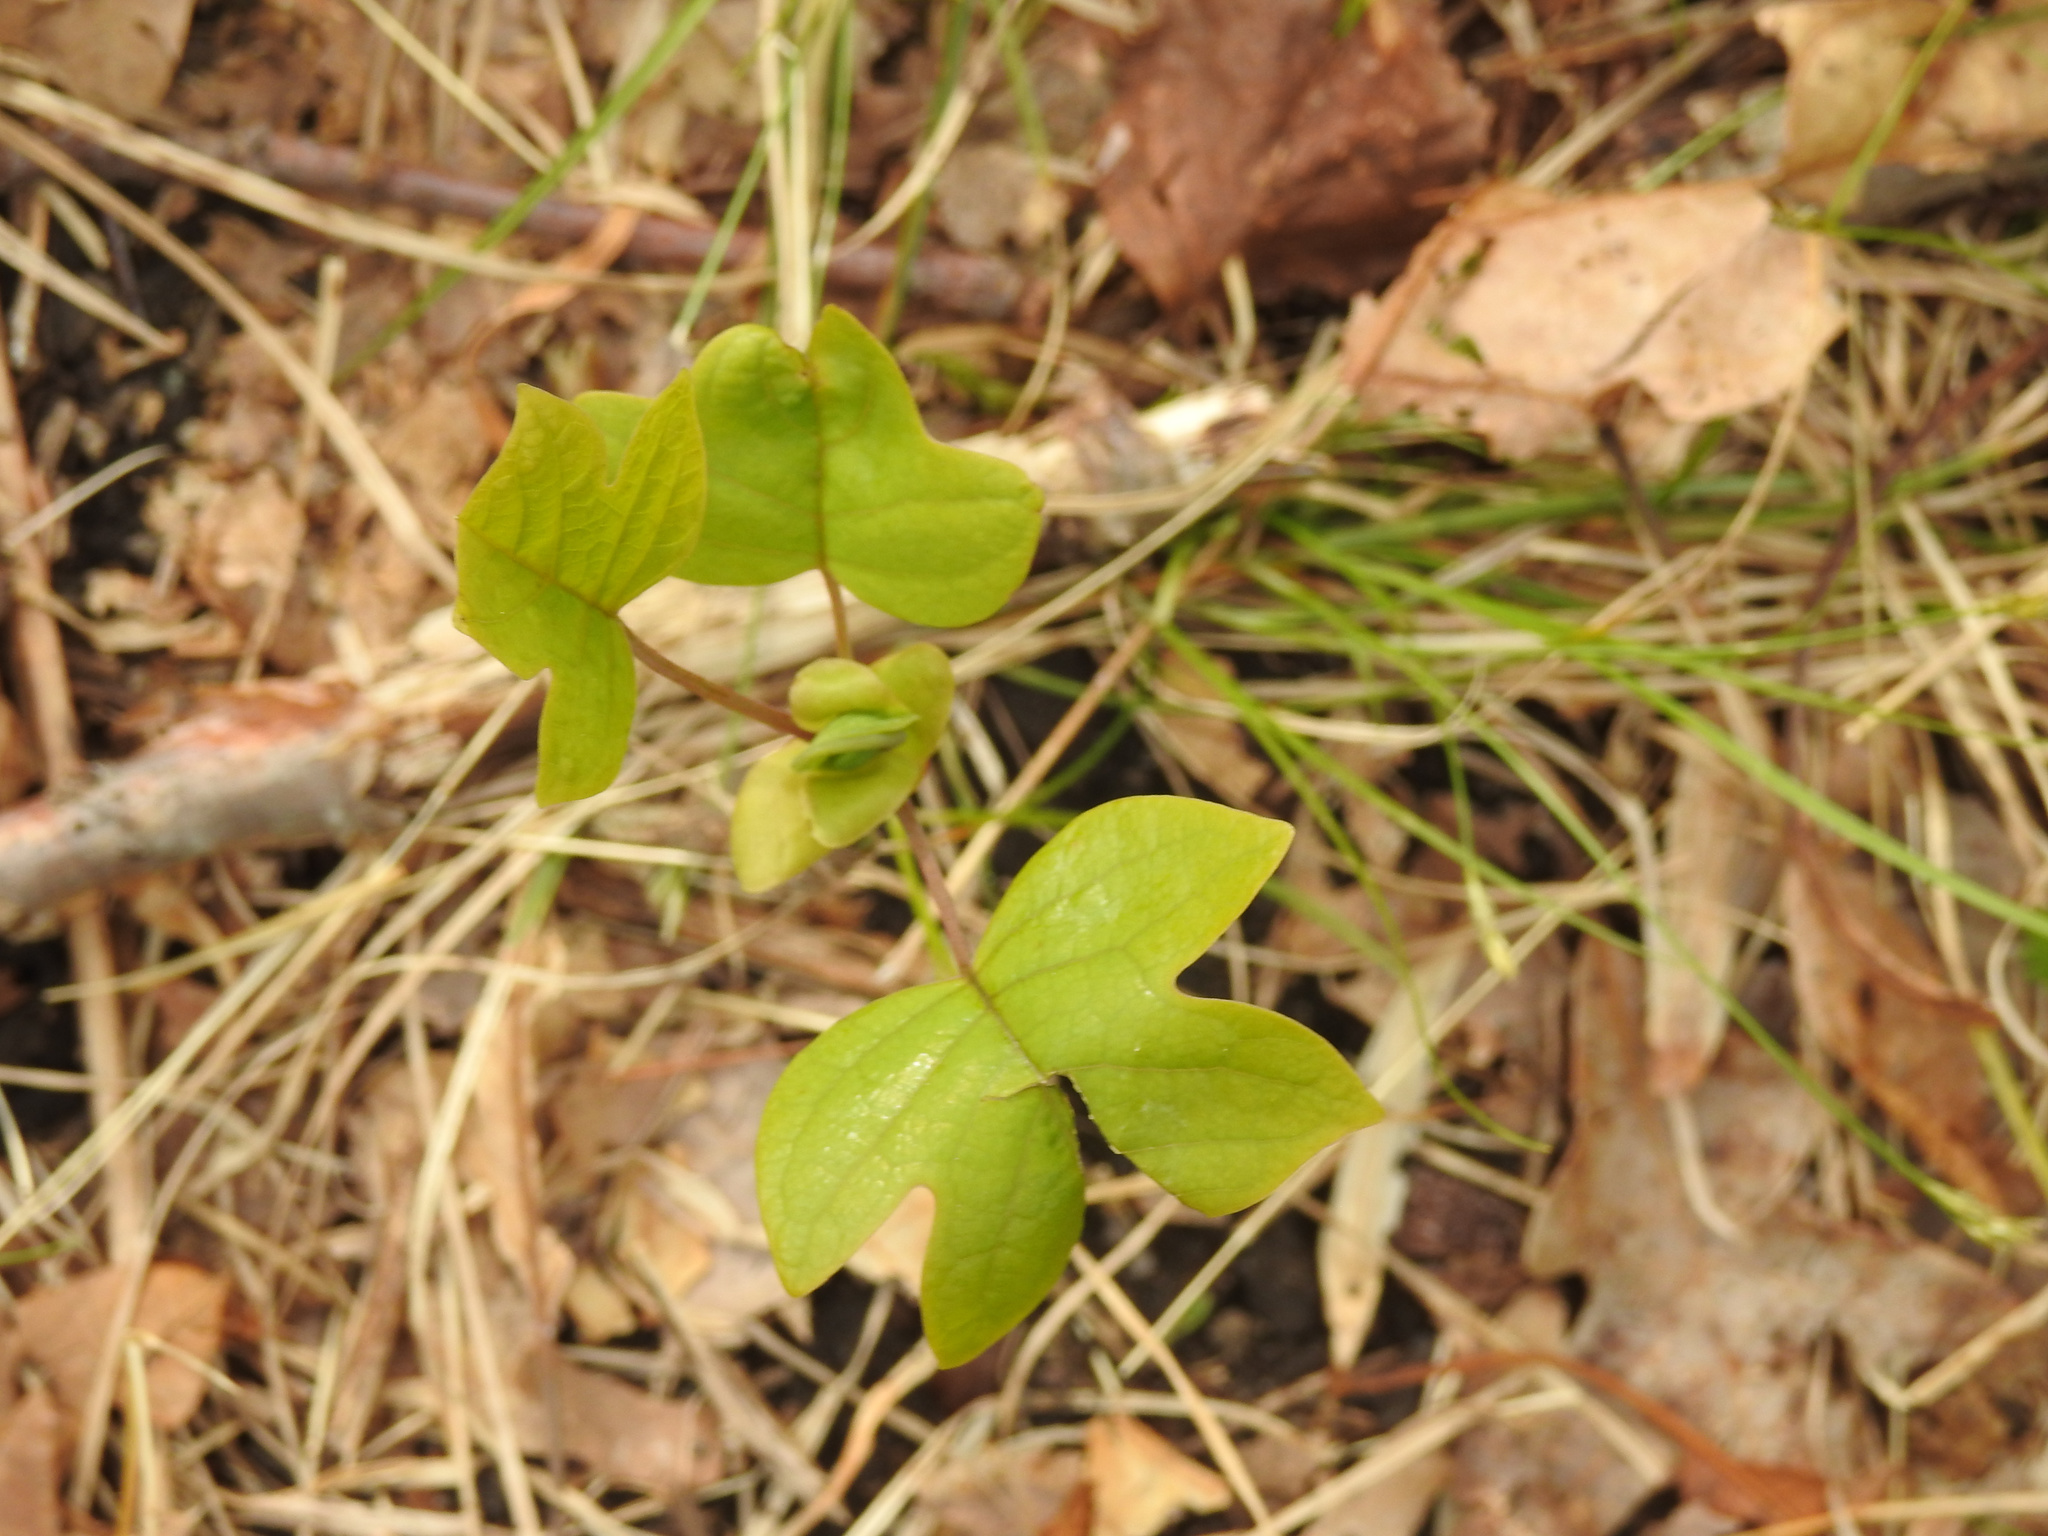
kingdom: Plantae
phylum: Tracheophyta
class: Magnoliopsida
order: Magnoliales
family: Magnoliaceae
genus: Liriodendron
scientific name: Liriodendron tulipifera
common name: Tulip tree
